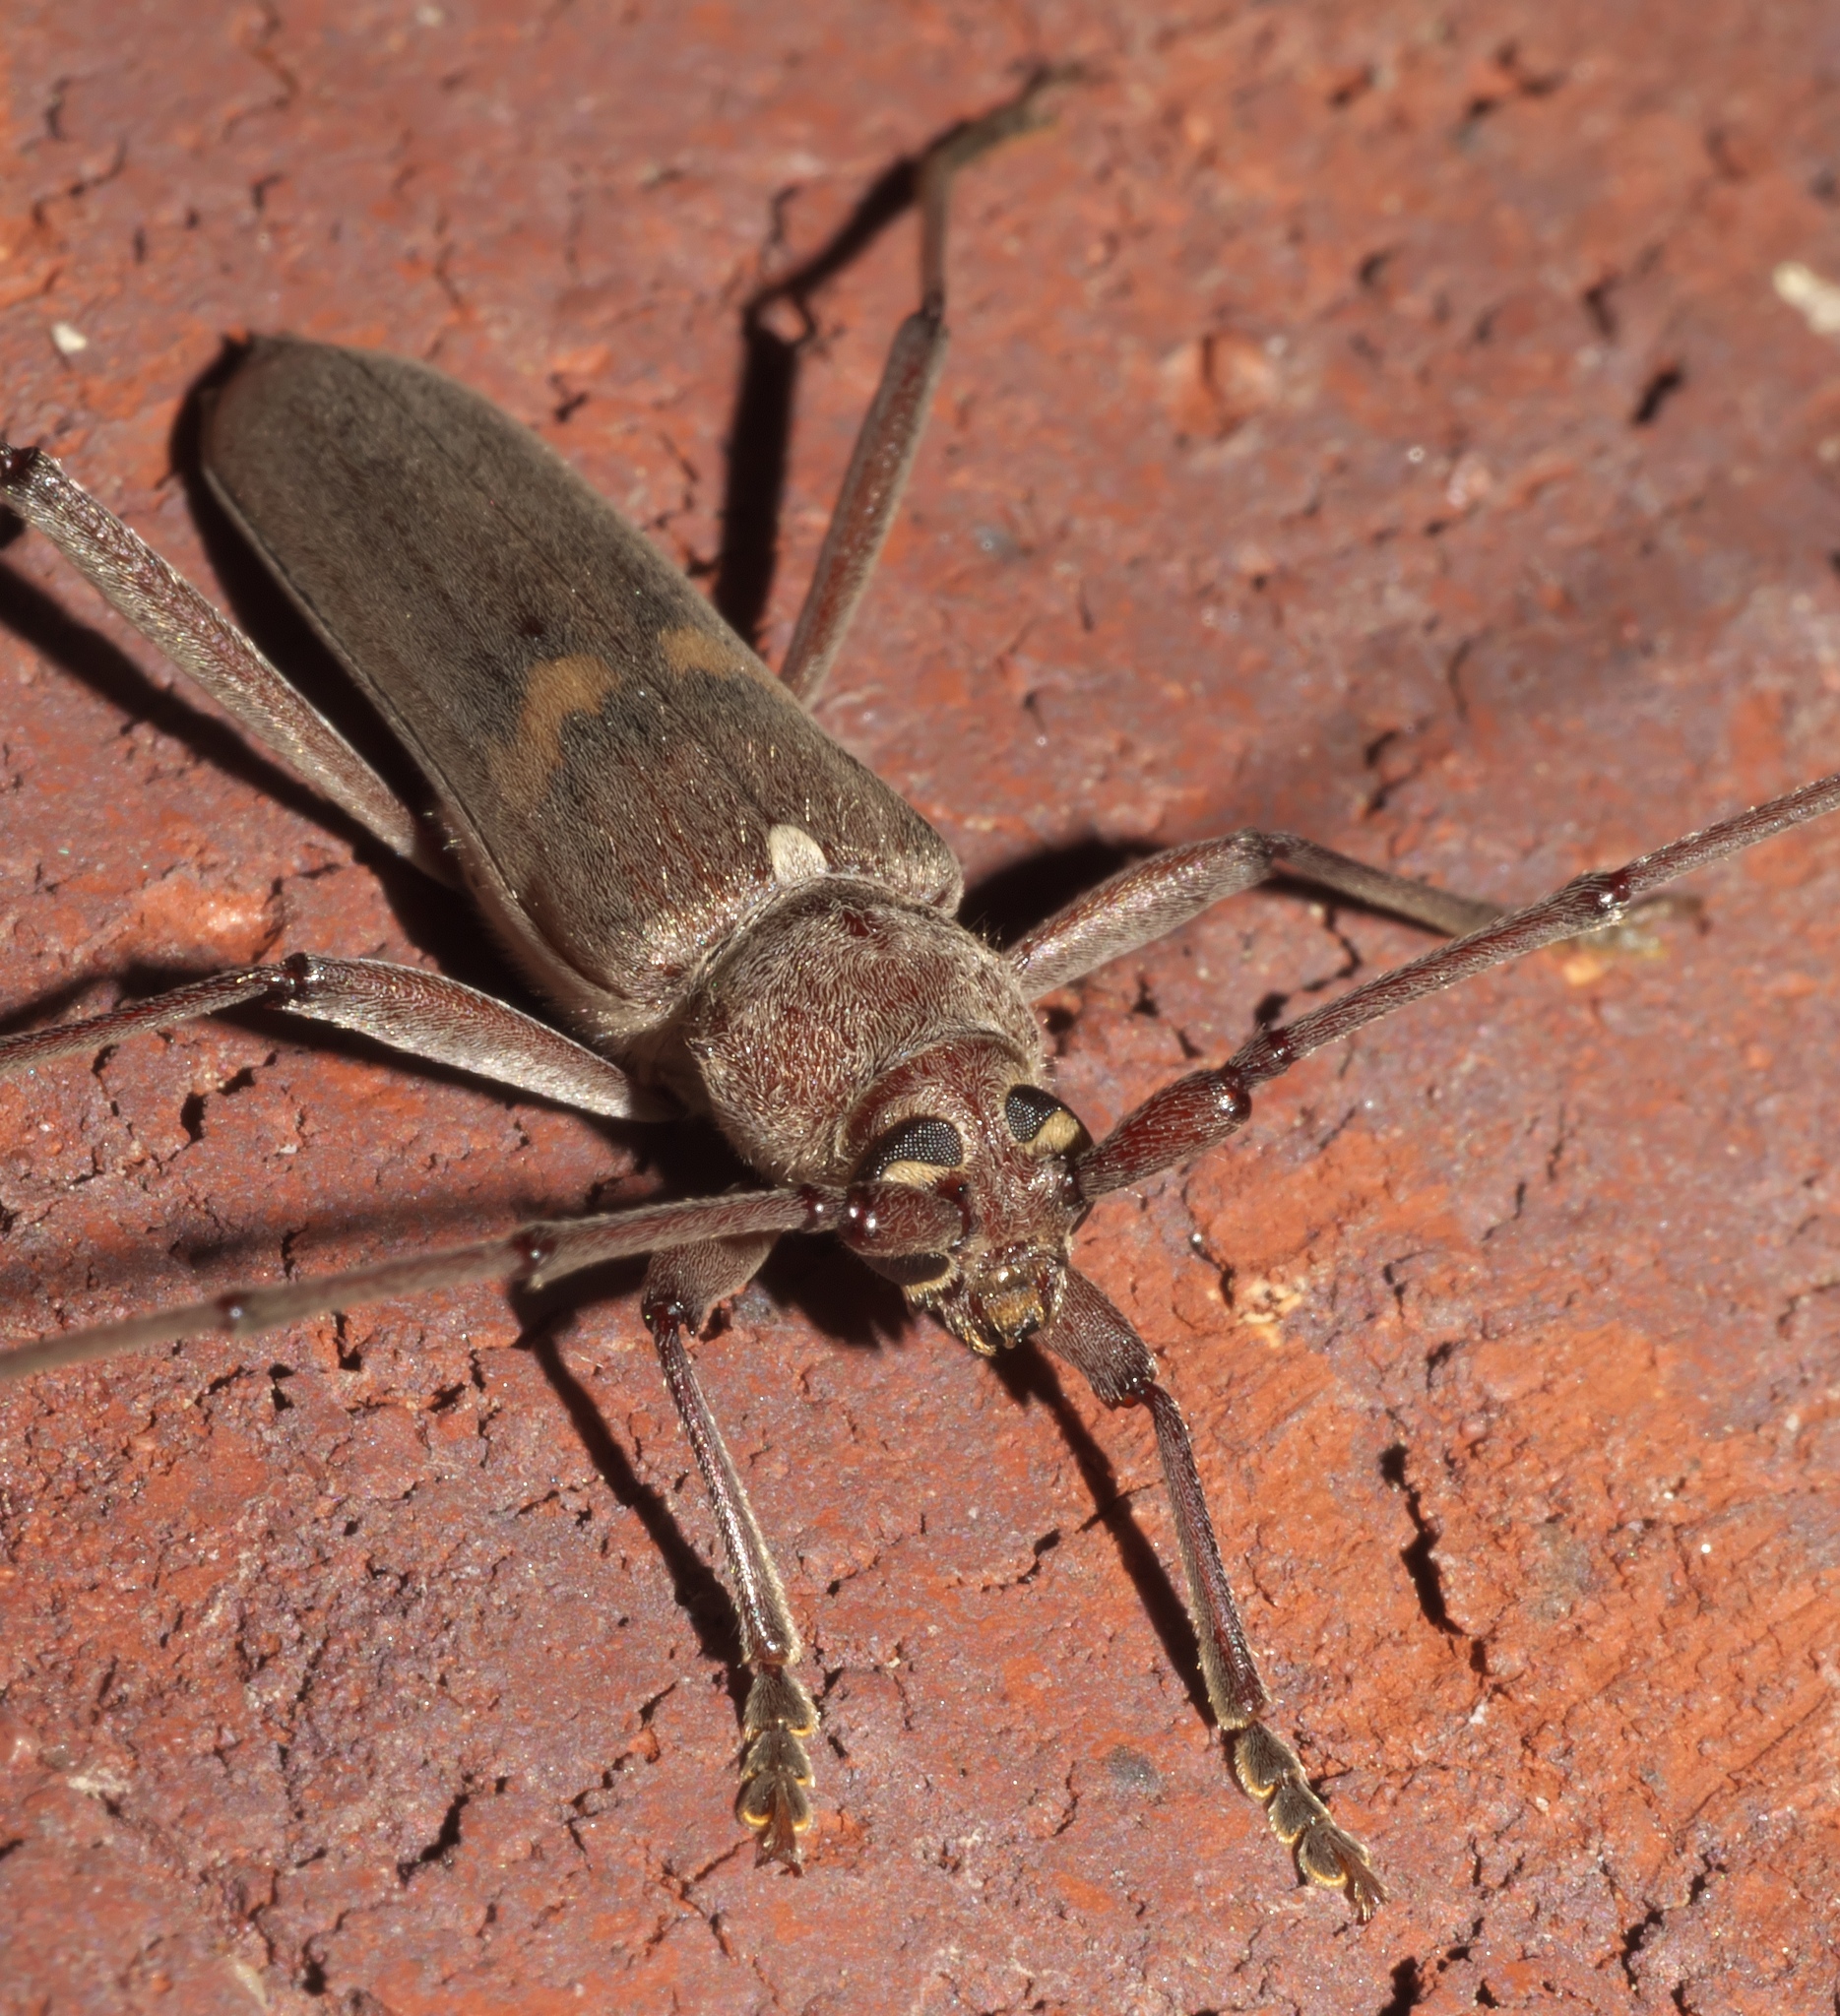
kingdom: Animalia
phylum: Arthropoda
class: Insecta
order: Coleoptera
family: Cerambycidae
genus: Knulliana
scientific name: Knulliana cincta
